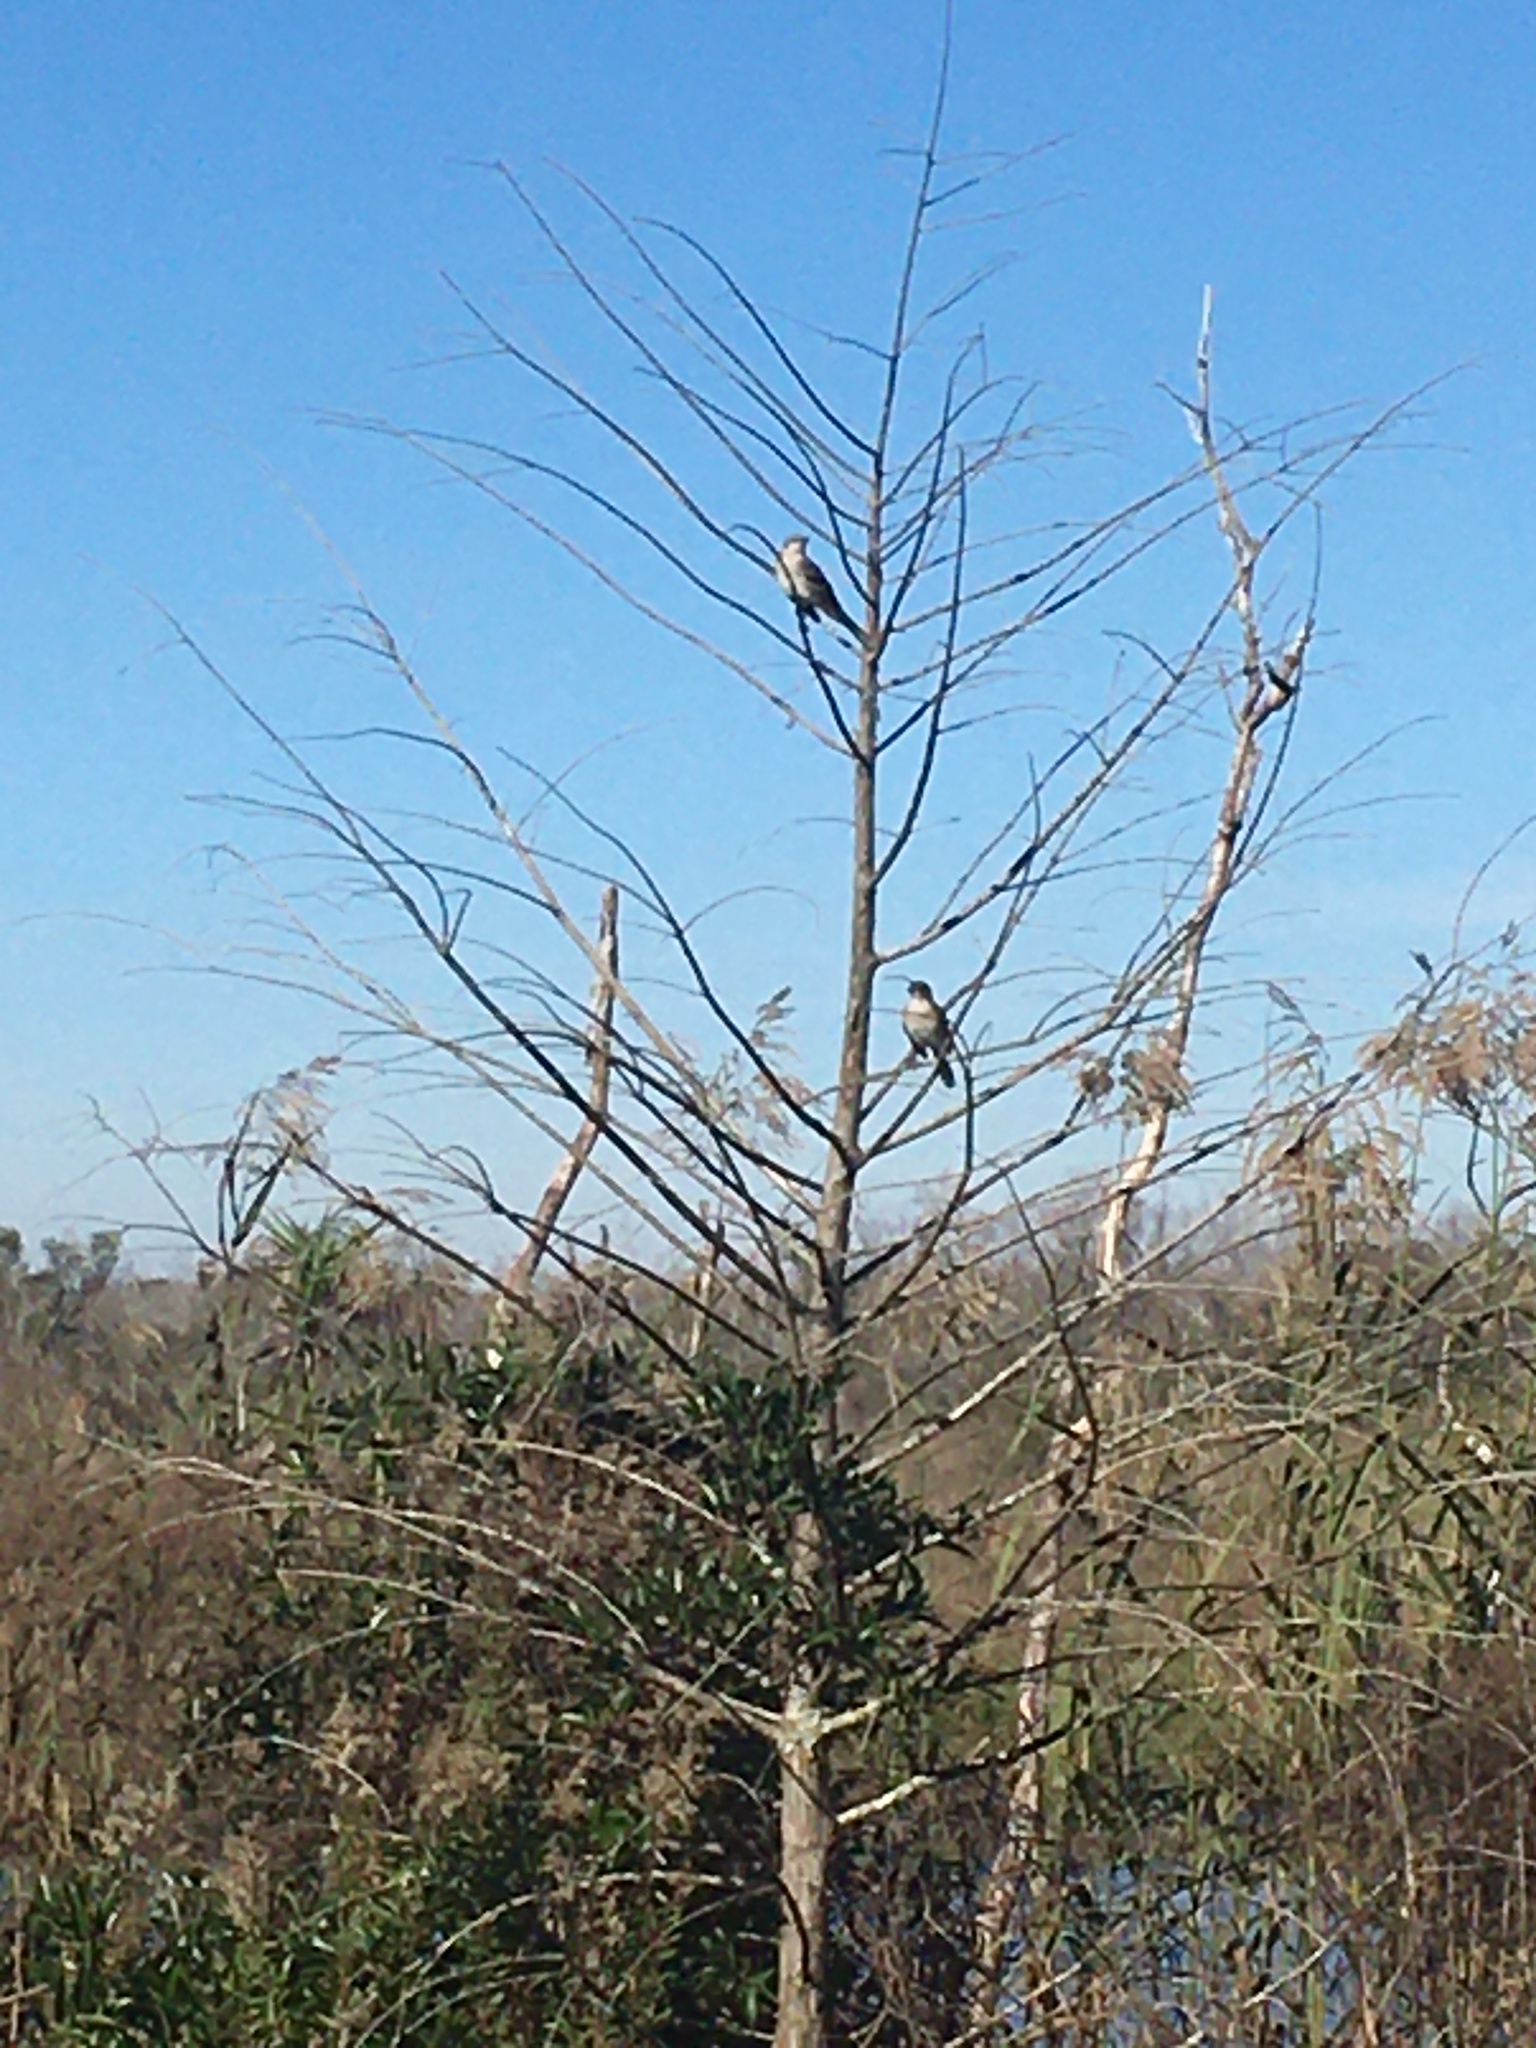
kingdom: Animalia
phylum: Chordata
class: Aves
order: Passeriformes
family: Mimidae
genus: Mimus
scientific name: Mimus polyglottos
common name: Northern mockingbird
